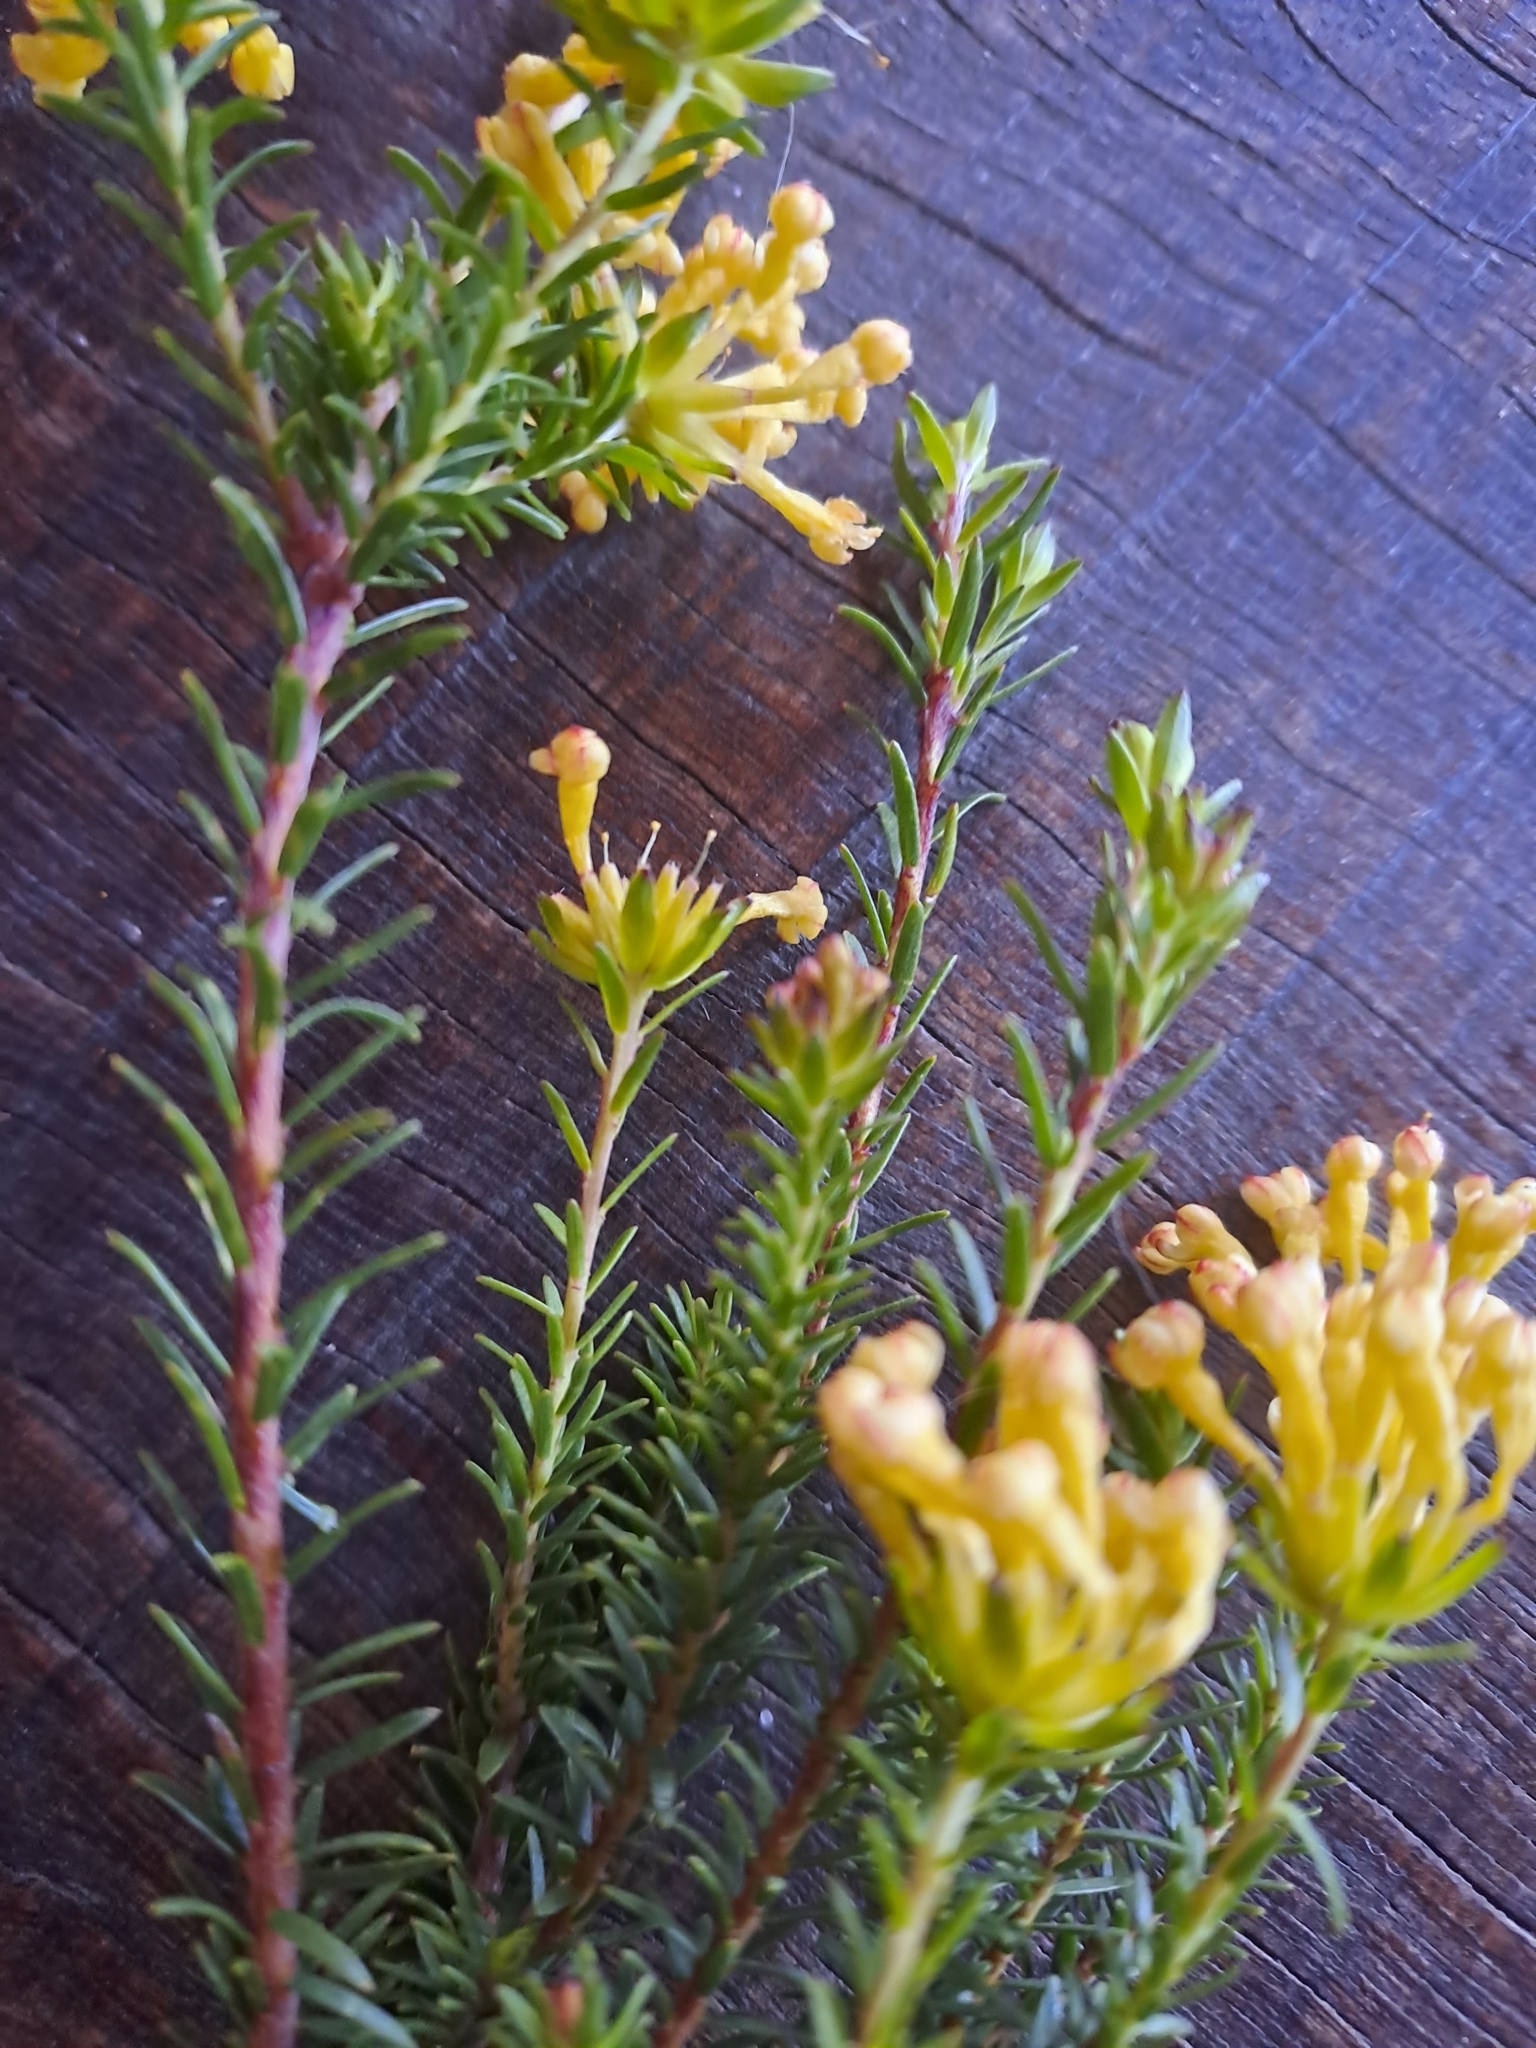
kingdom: Plantae
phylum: Tracheophyta
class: Magnoliopsida
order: Malvales
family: Thymelaeaceae
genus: Gnidia
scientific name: Gnidia squarrosa
